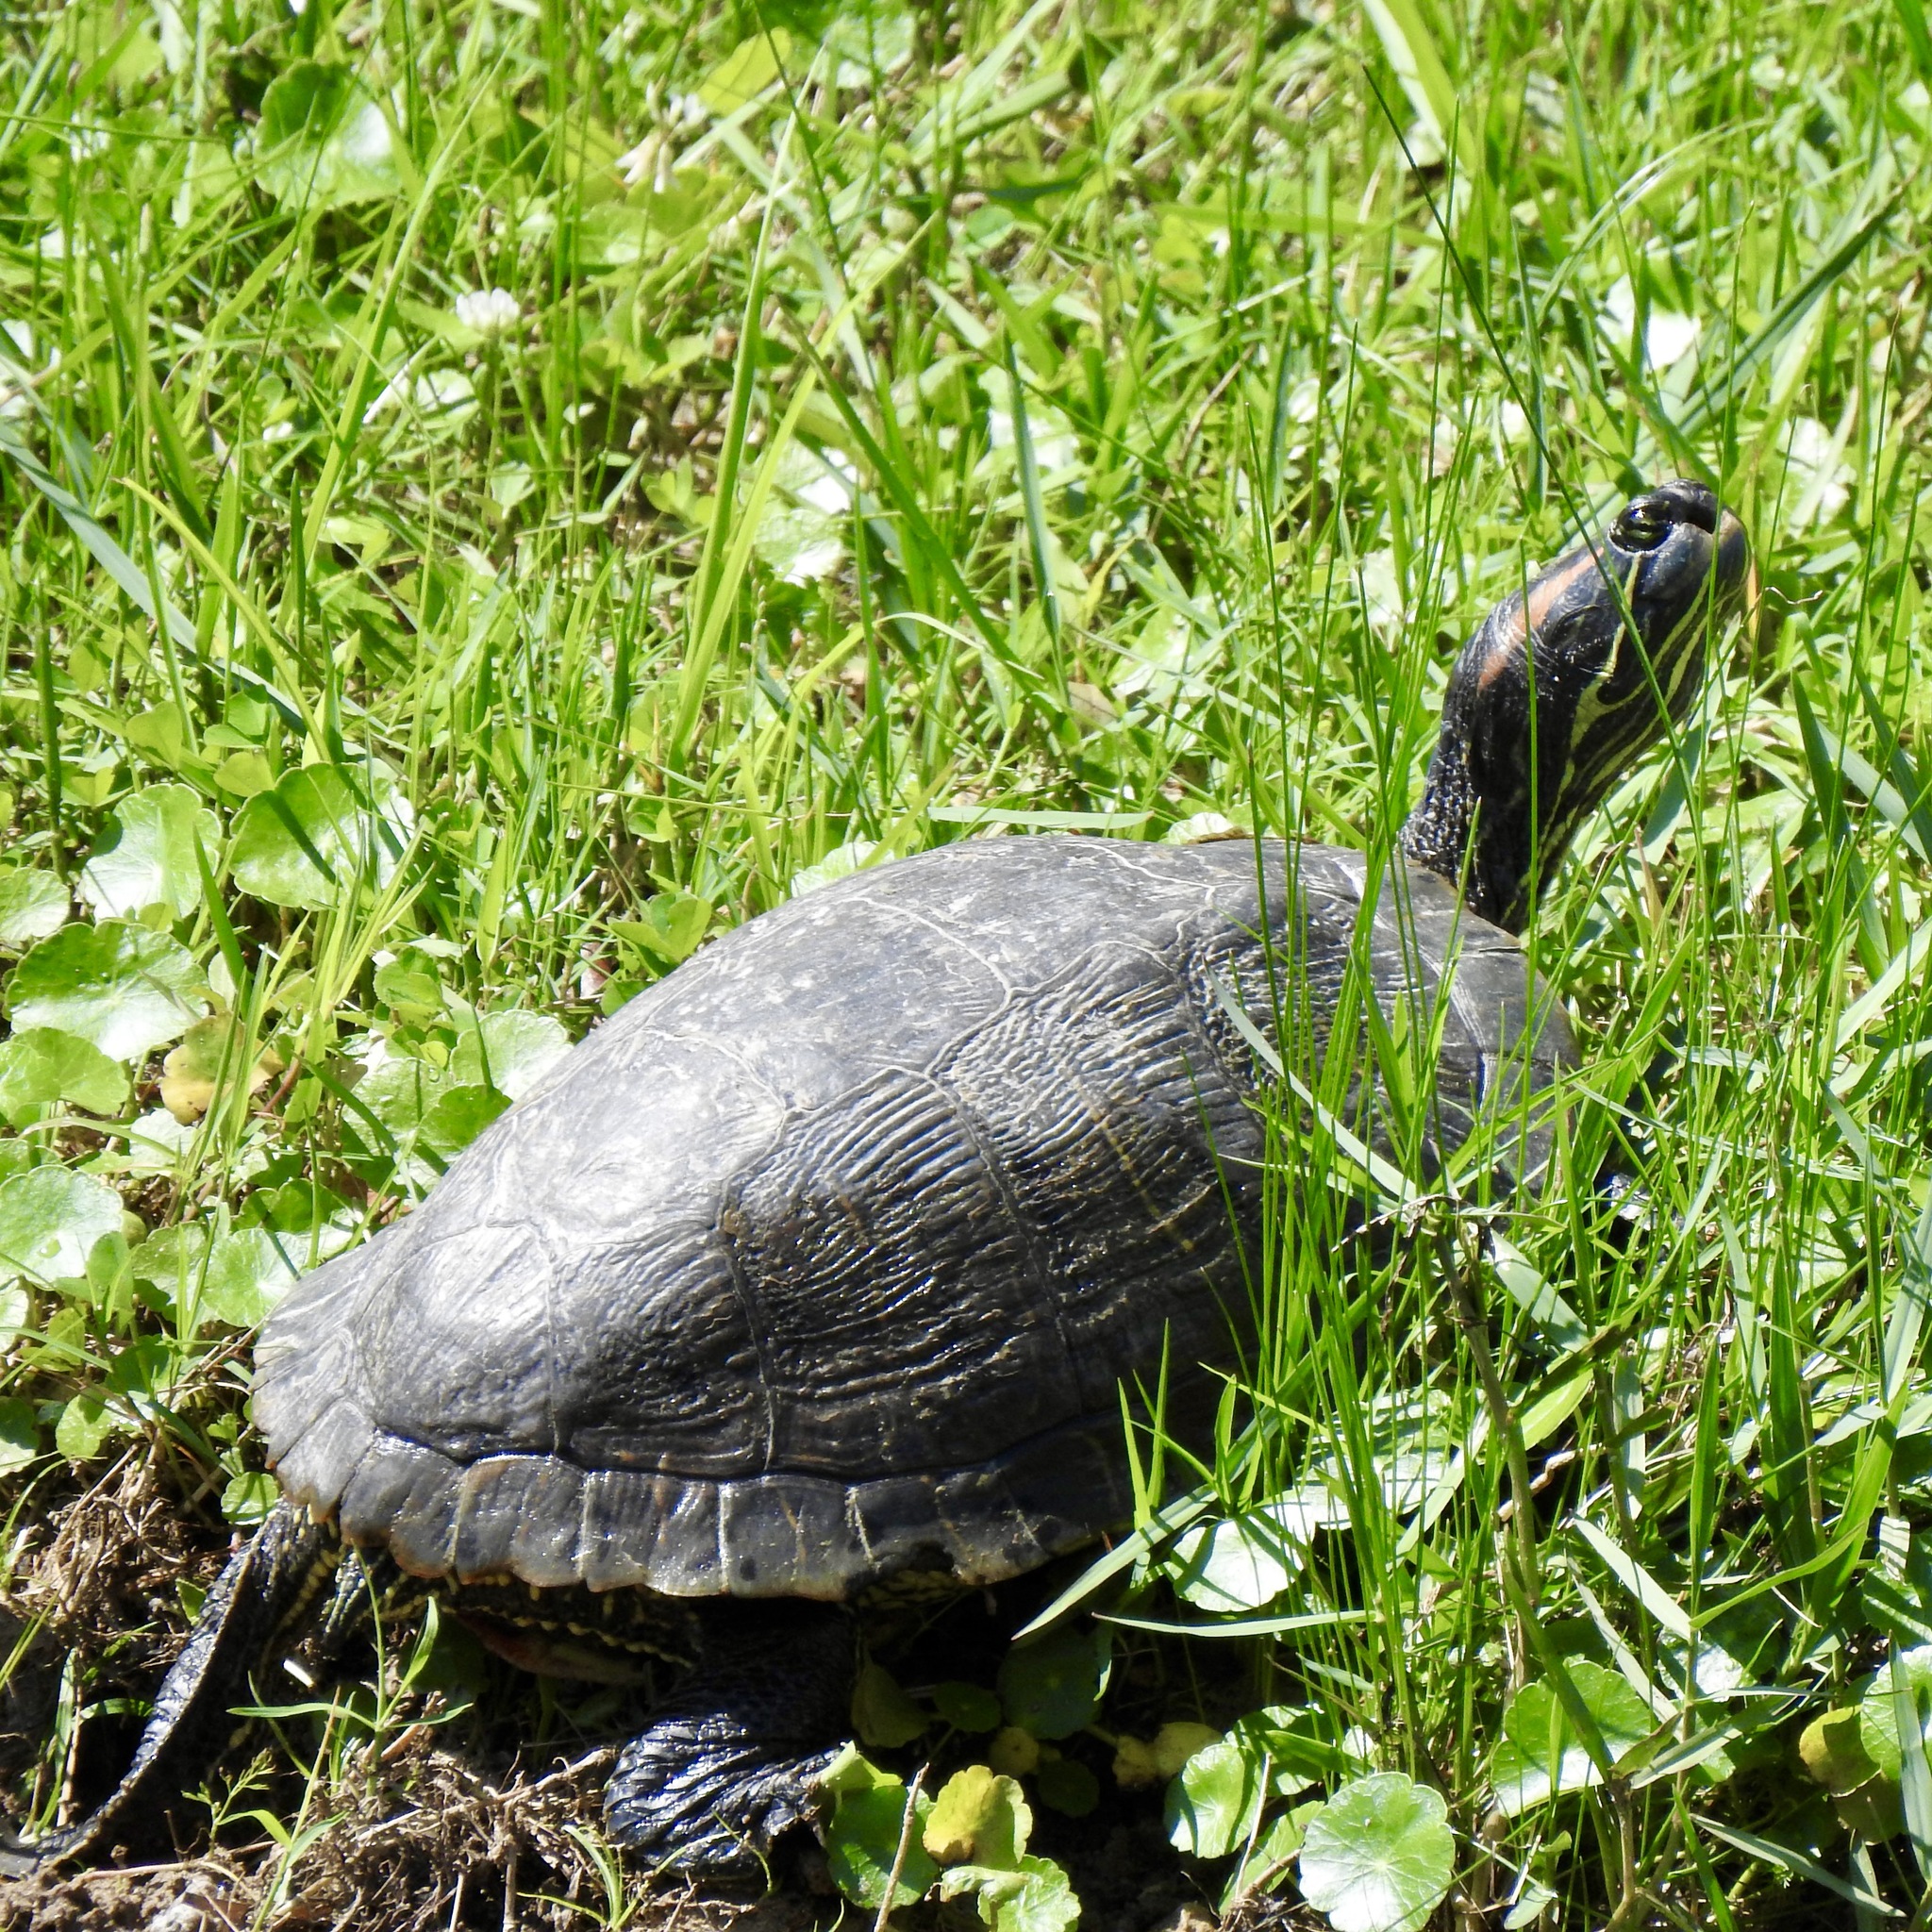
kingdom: Animalia
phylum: Chordata
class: Testudines
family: Emydidae
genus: Trachemys
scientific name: Trachemys scripta
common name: Slider
